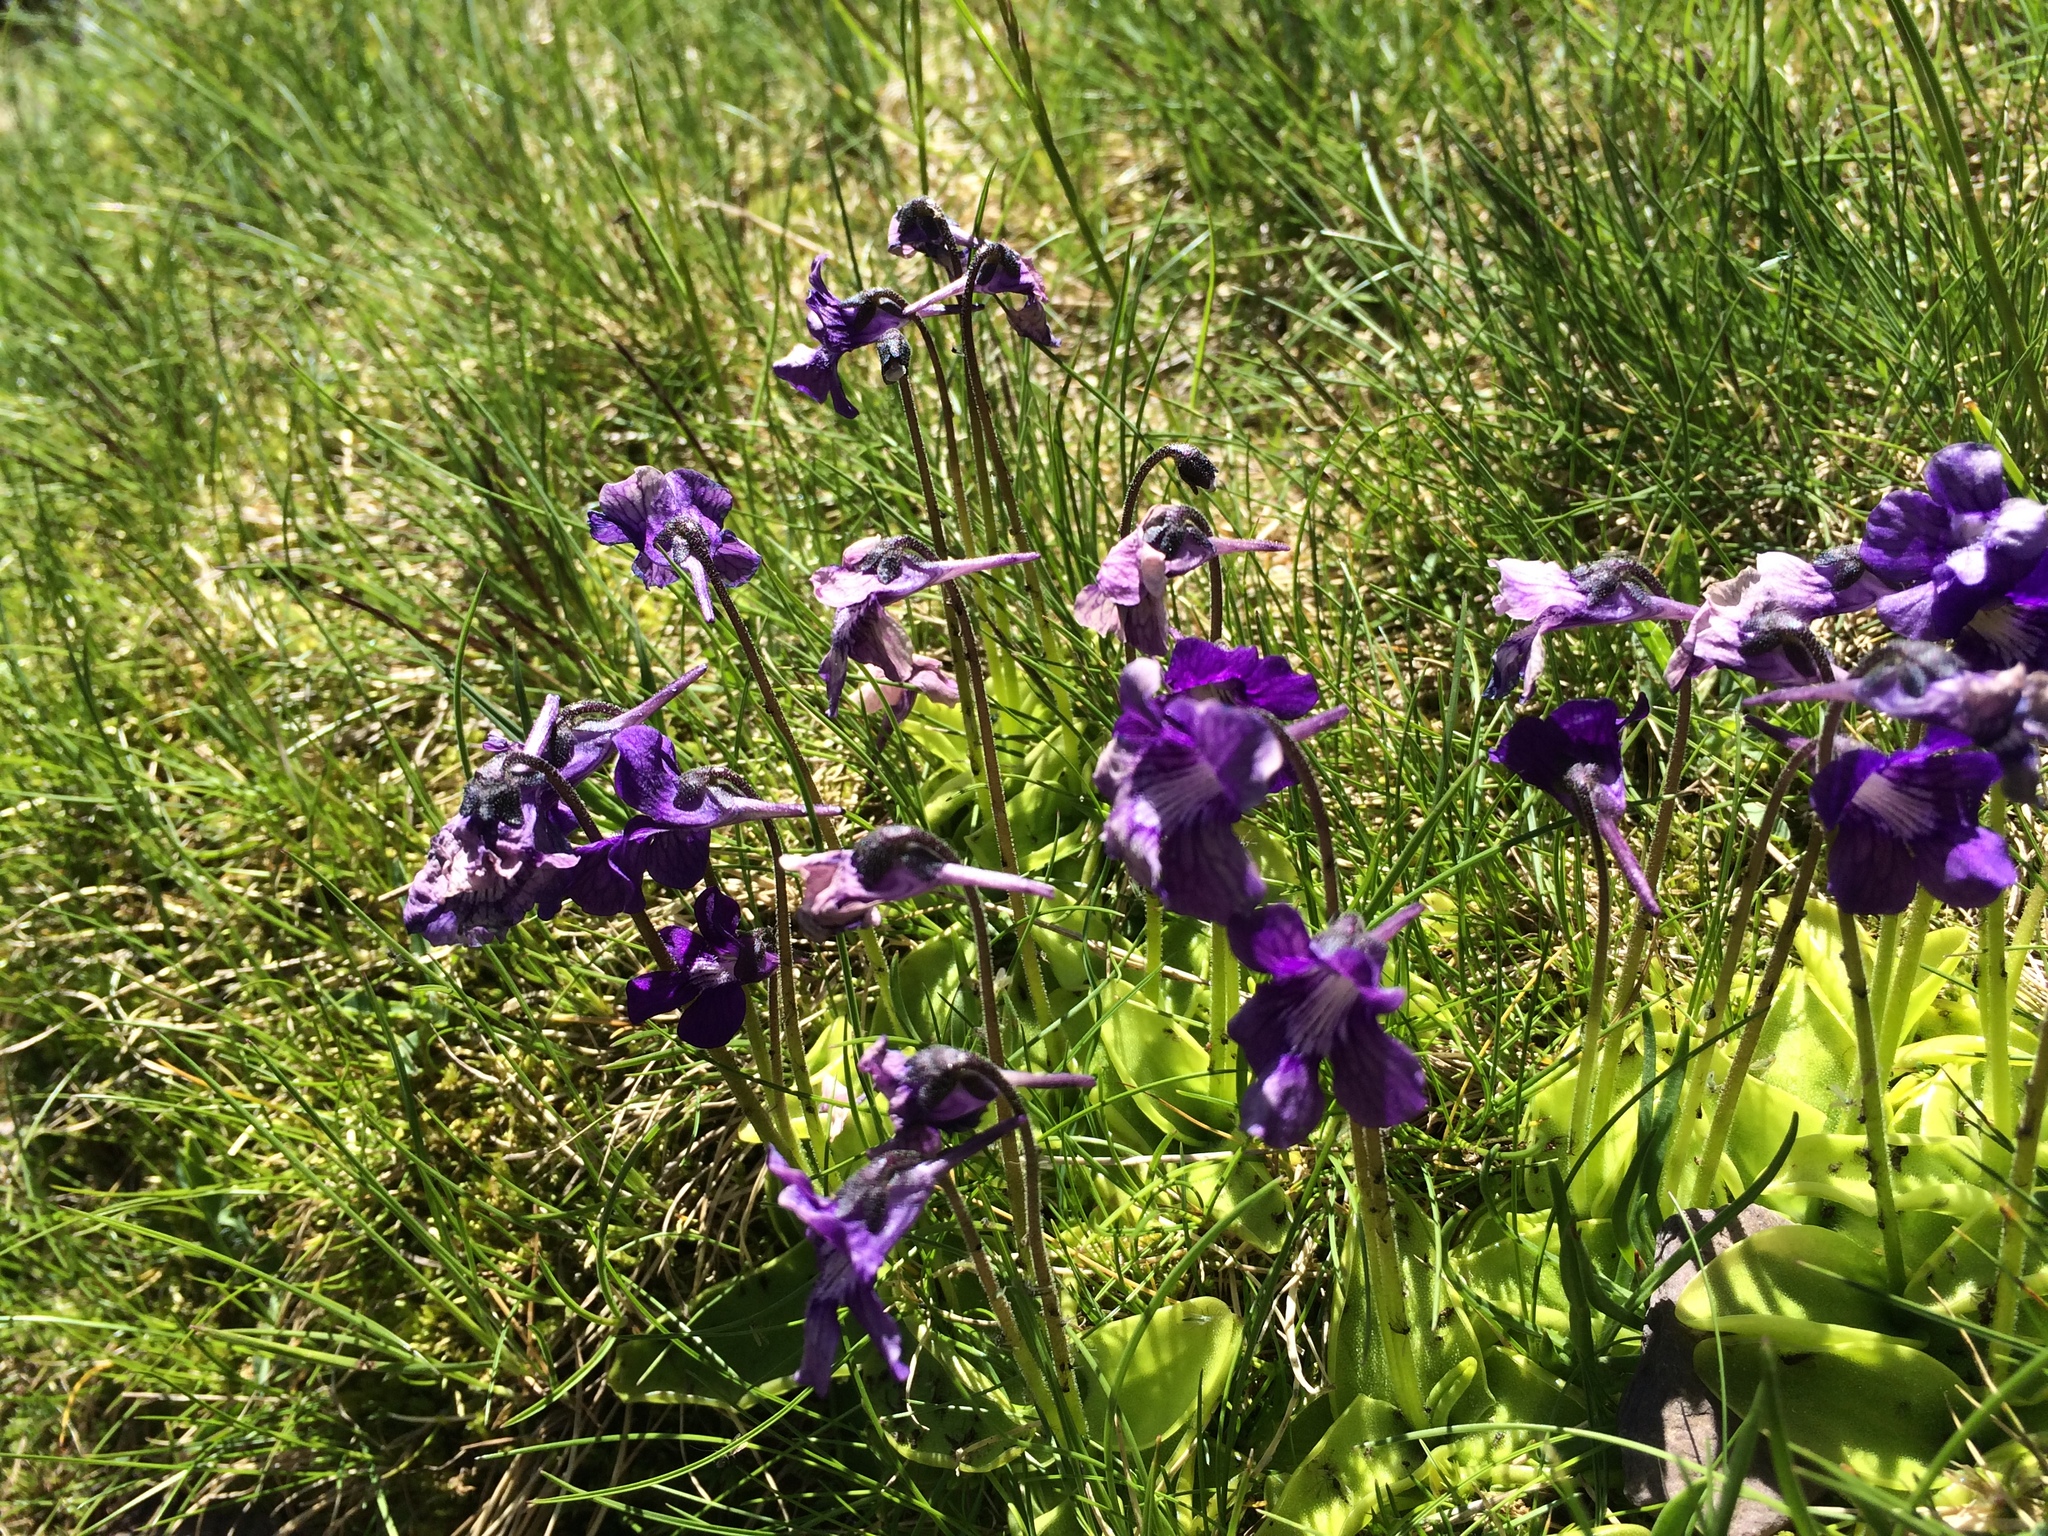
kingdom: Plantae
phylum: Tracheophyta
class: Magnoliopsida
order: Lamiales
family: Lentibulariaceae
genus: Pinguicula
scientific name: Pinguicula grandiflora
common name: Large-flowered butterwort
